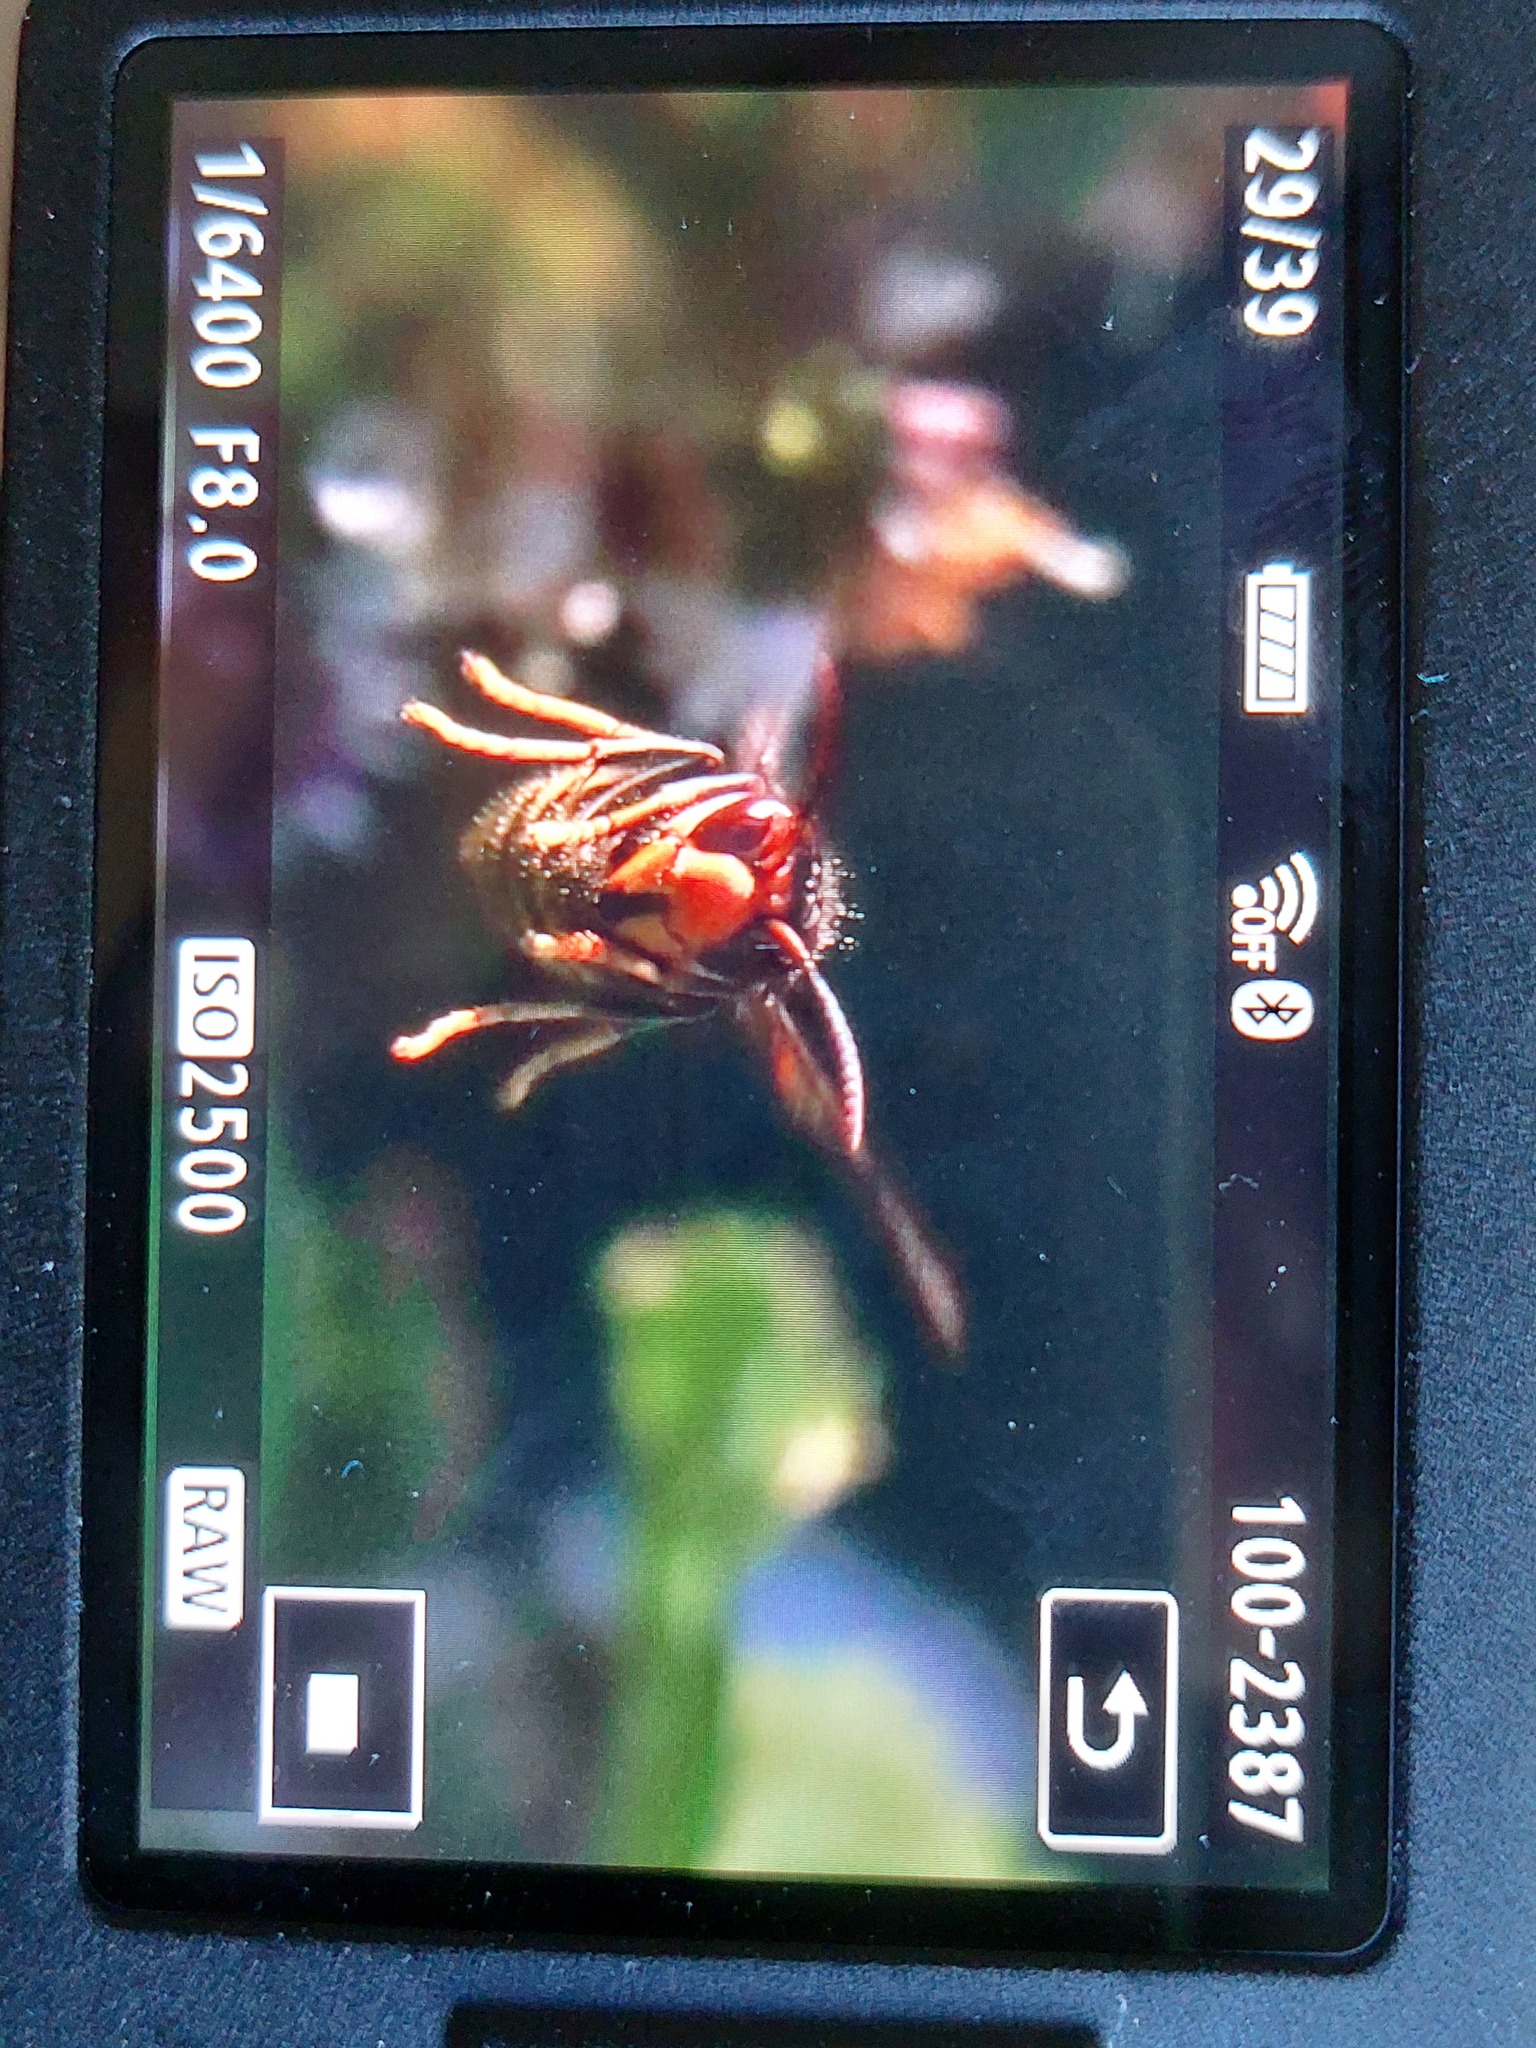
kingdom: Animalia
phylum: Arthropoda
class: Insecta
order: Hymenoptera
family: Vespidae
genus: Vespa
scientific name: Vespa velutina
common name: Asian hornet
